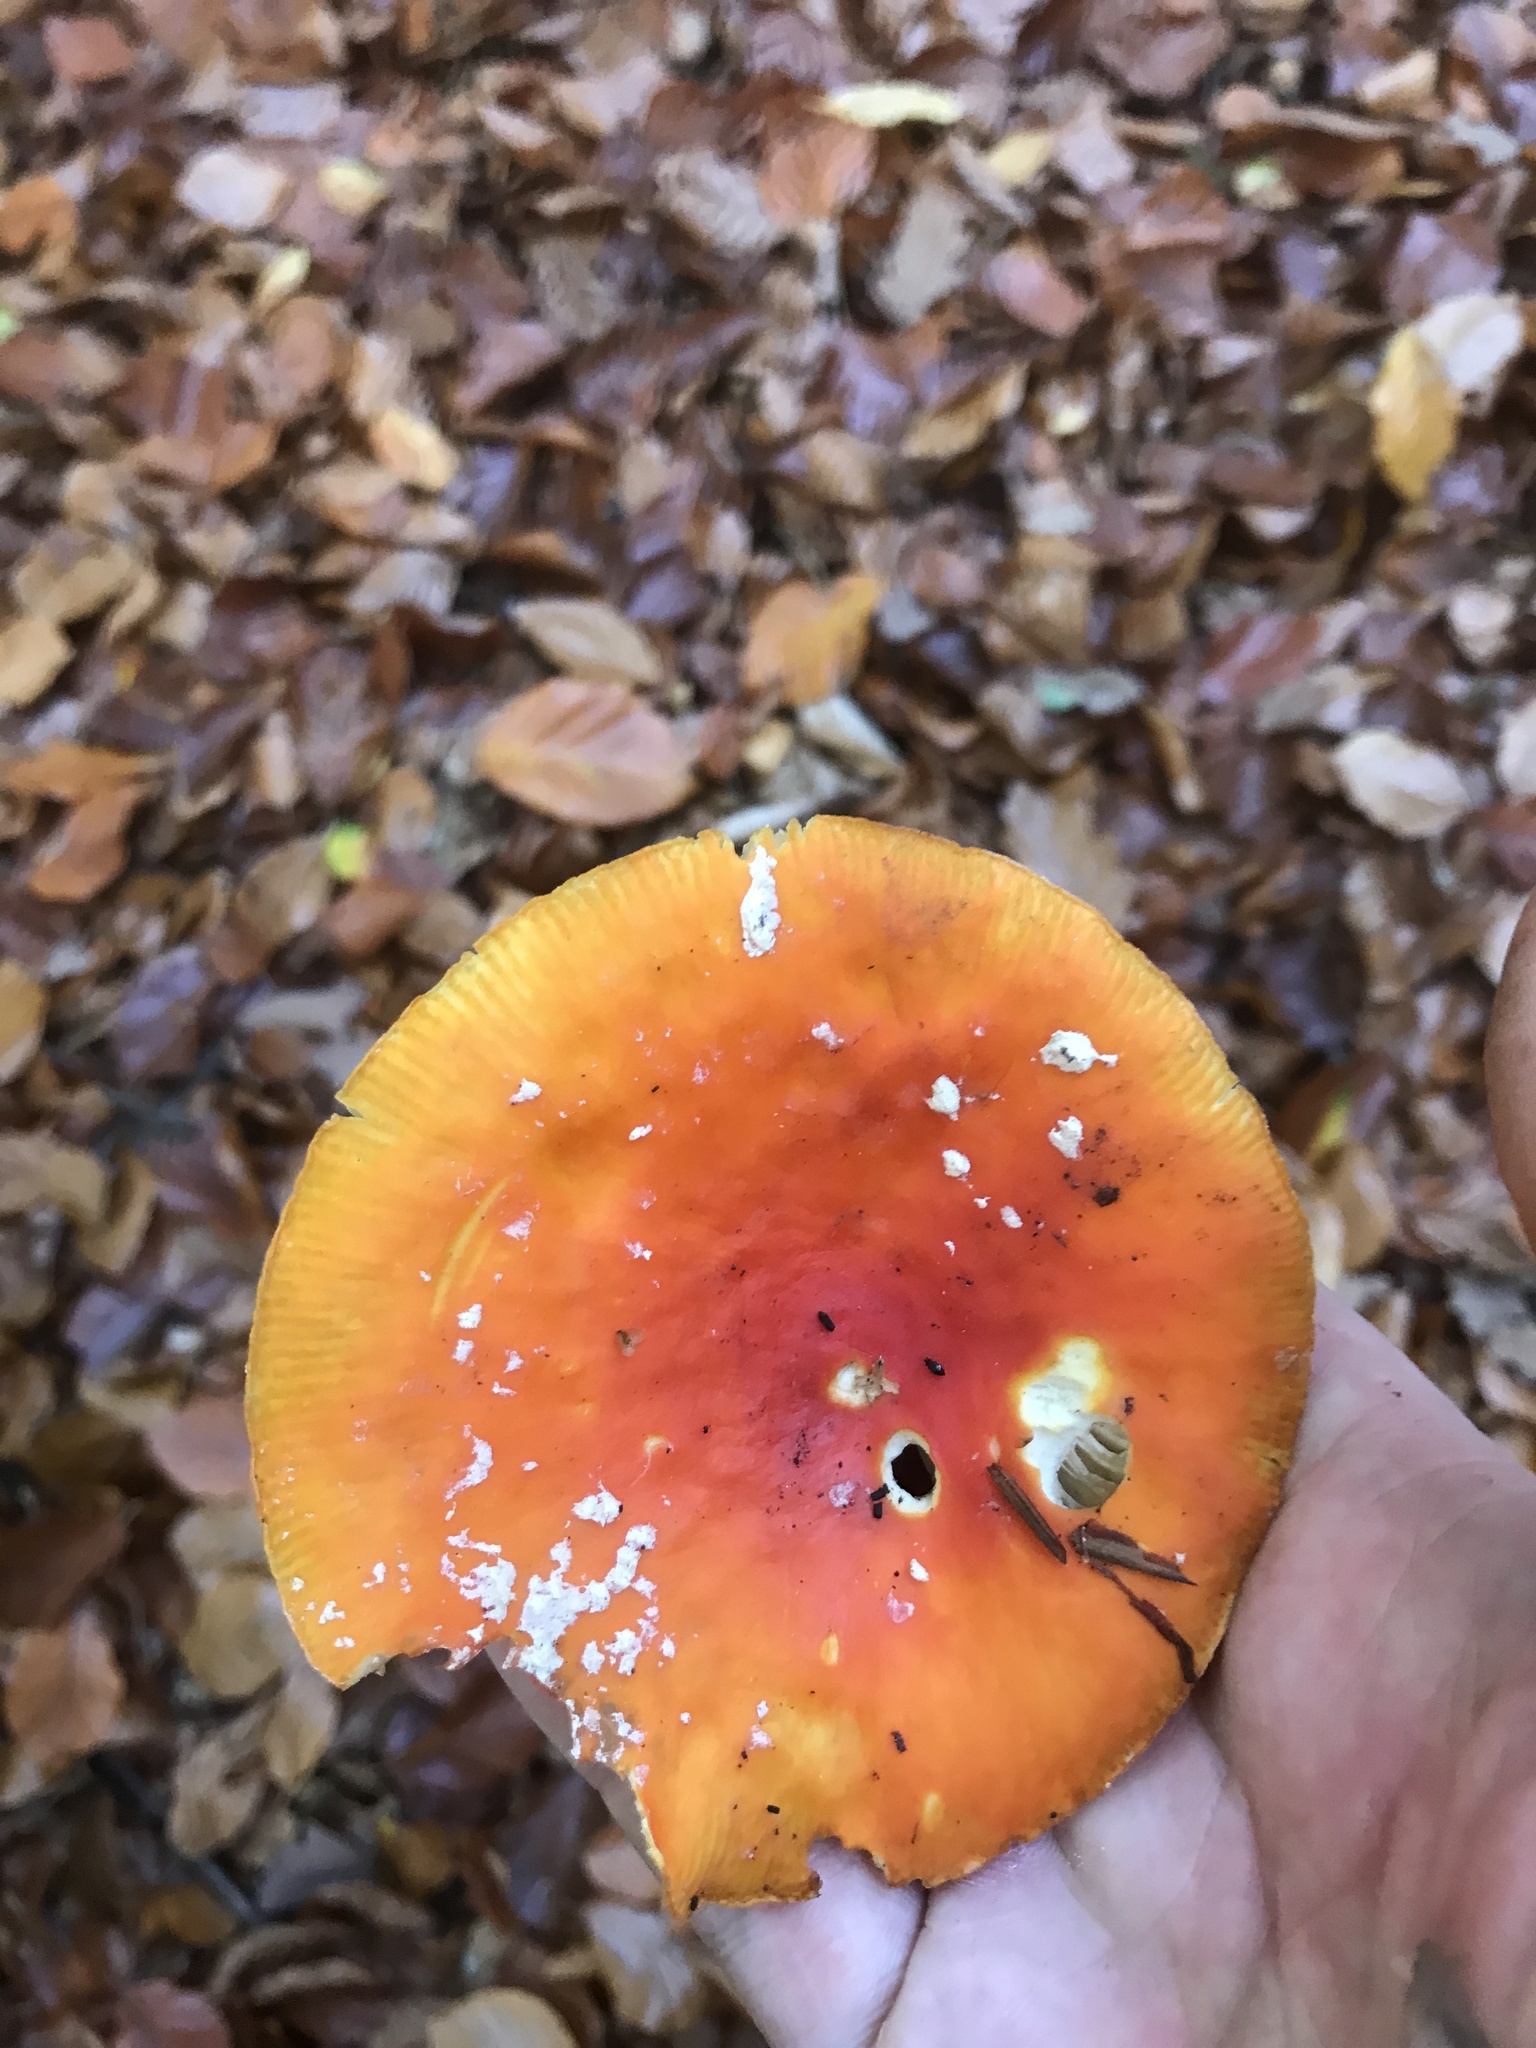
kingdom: Fungi
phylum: Basidiomycota
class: Agaricomycetes
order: Agaricales
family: Amanitaceae
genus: Amanita
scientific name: Amanita muscaria
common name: Fly agaric
